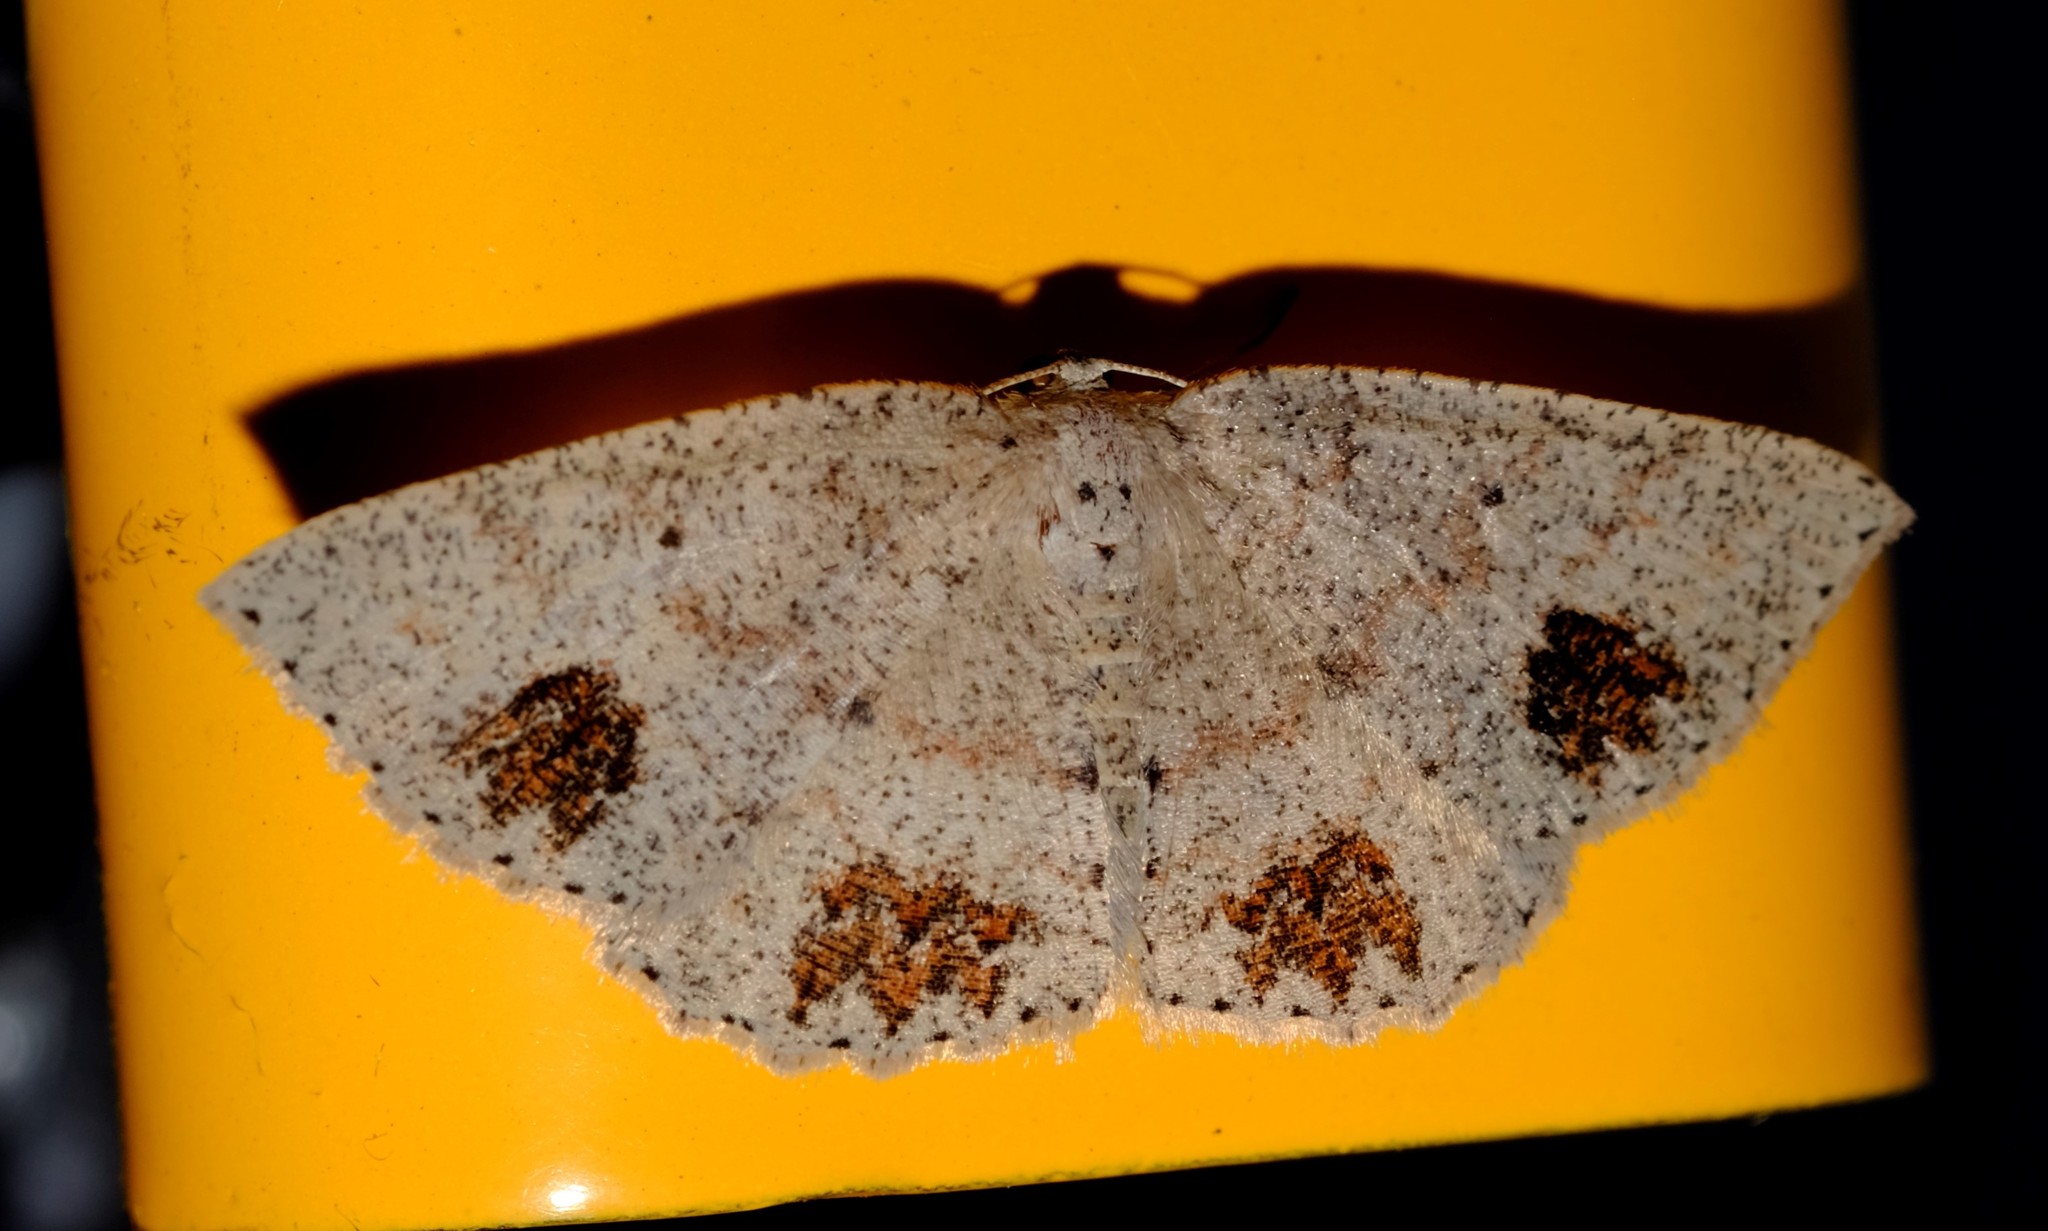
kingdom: Animalia
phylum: Arthropoda
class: Insecta
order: Lepidoptera
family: Geometridae
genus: Casbia
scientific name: Casbia celidosema
